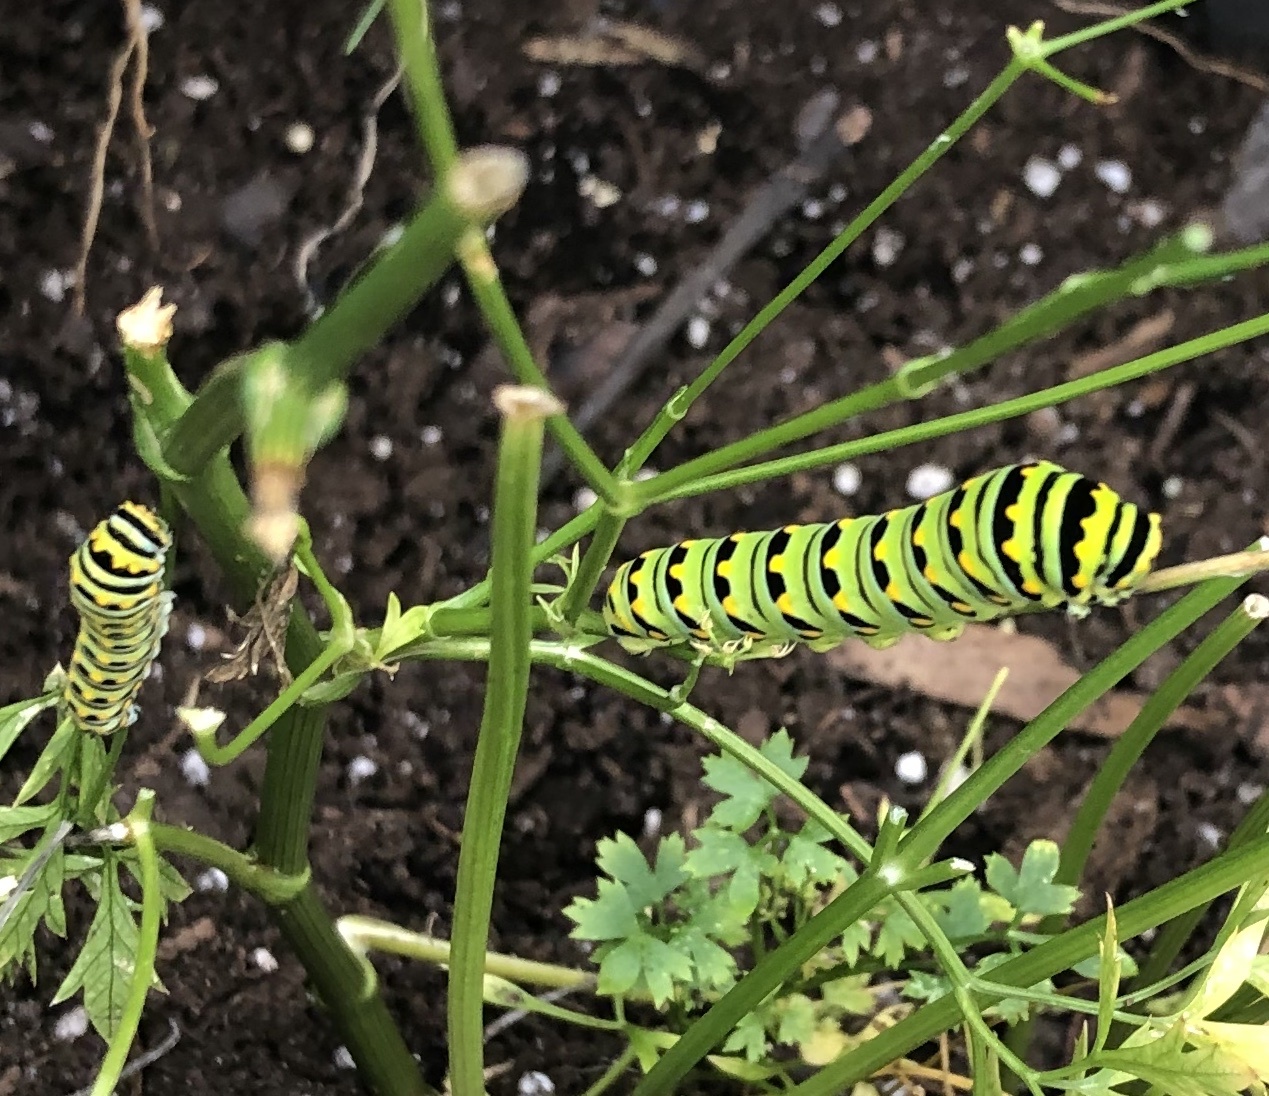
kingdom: Animalia
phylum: Arthropoda
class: Insecta
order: Lepidoptera
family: Papilionidae
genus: Papilio
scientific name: Papilio polyxenes
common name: Black swallowtail
